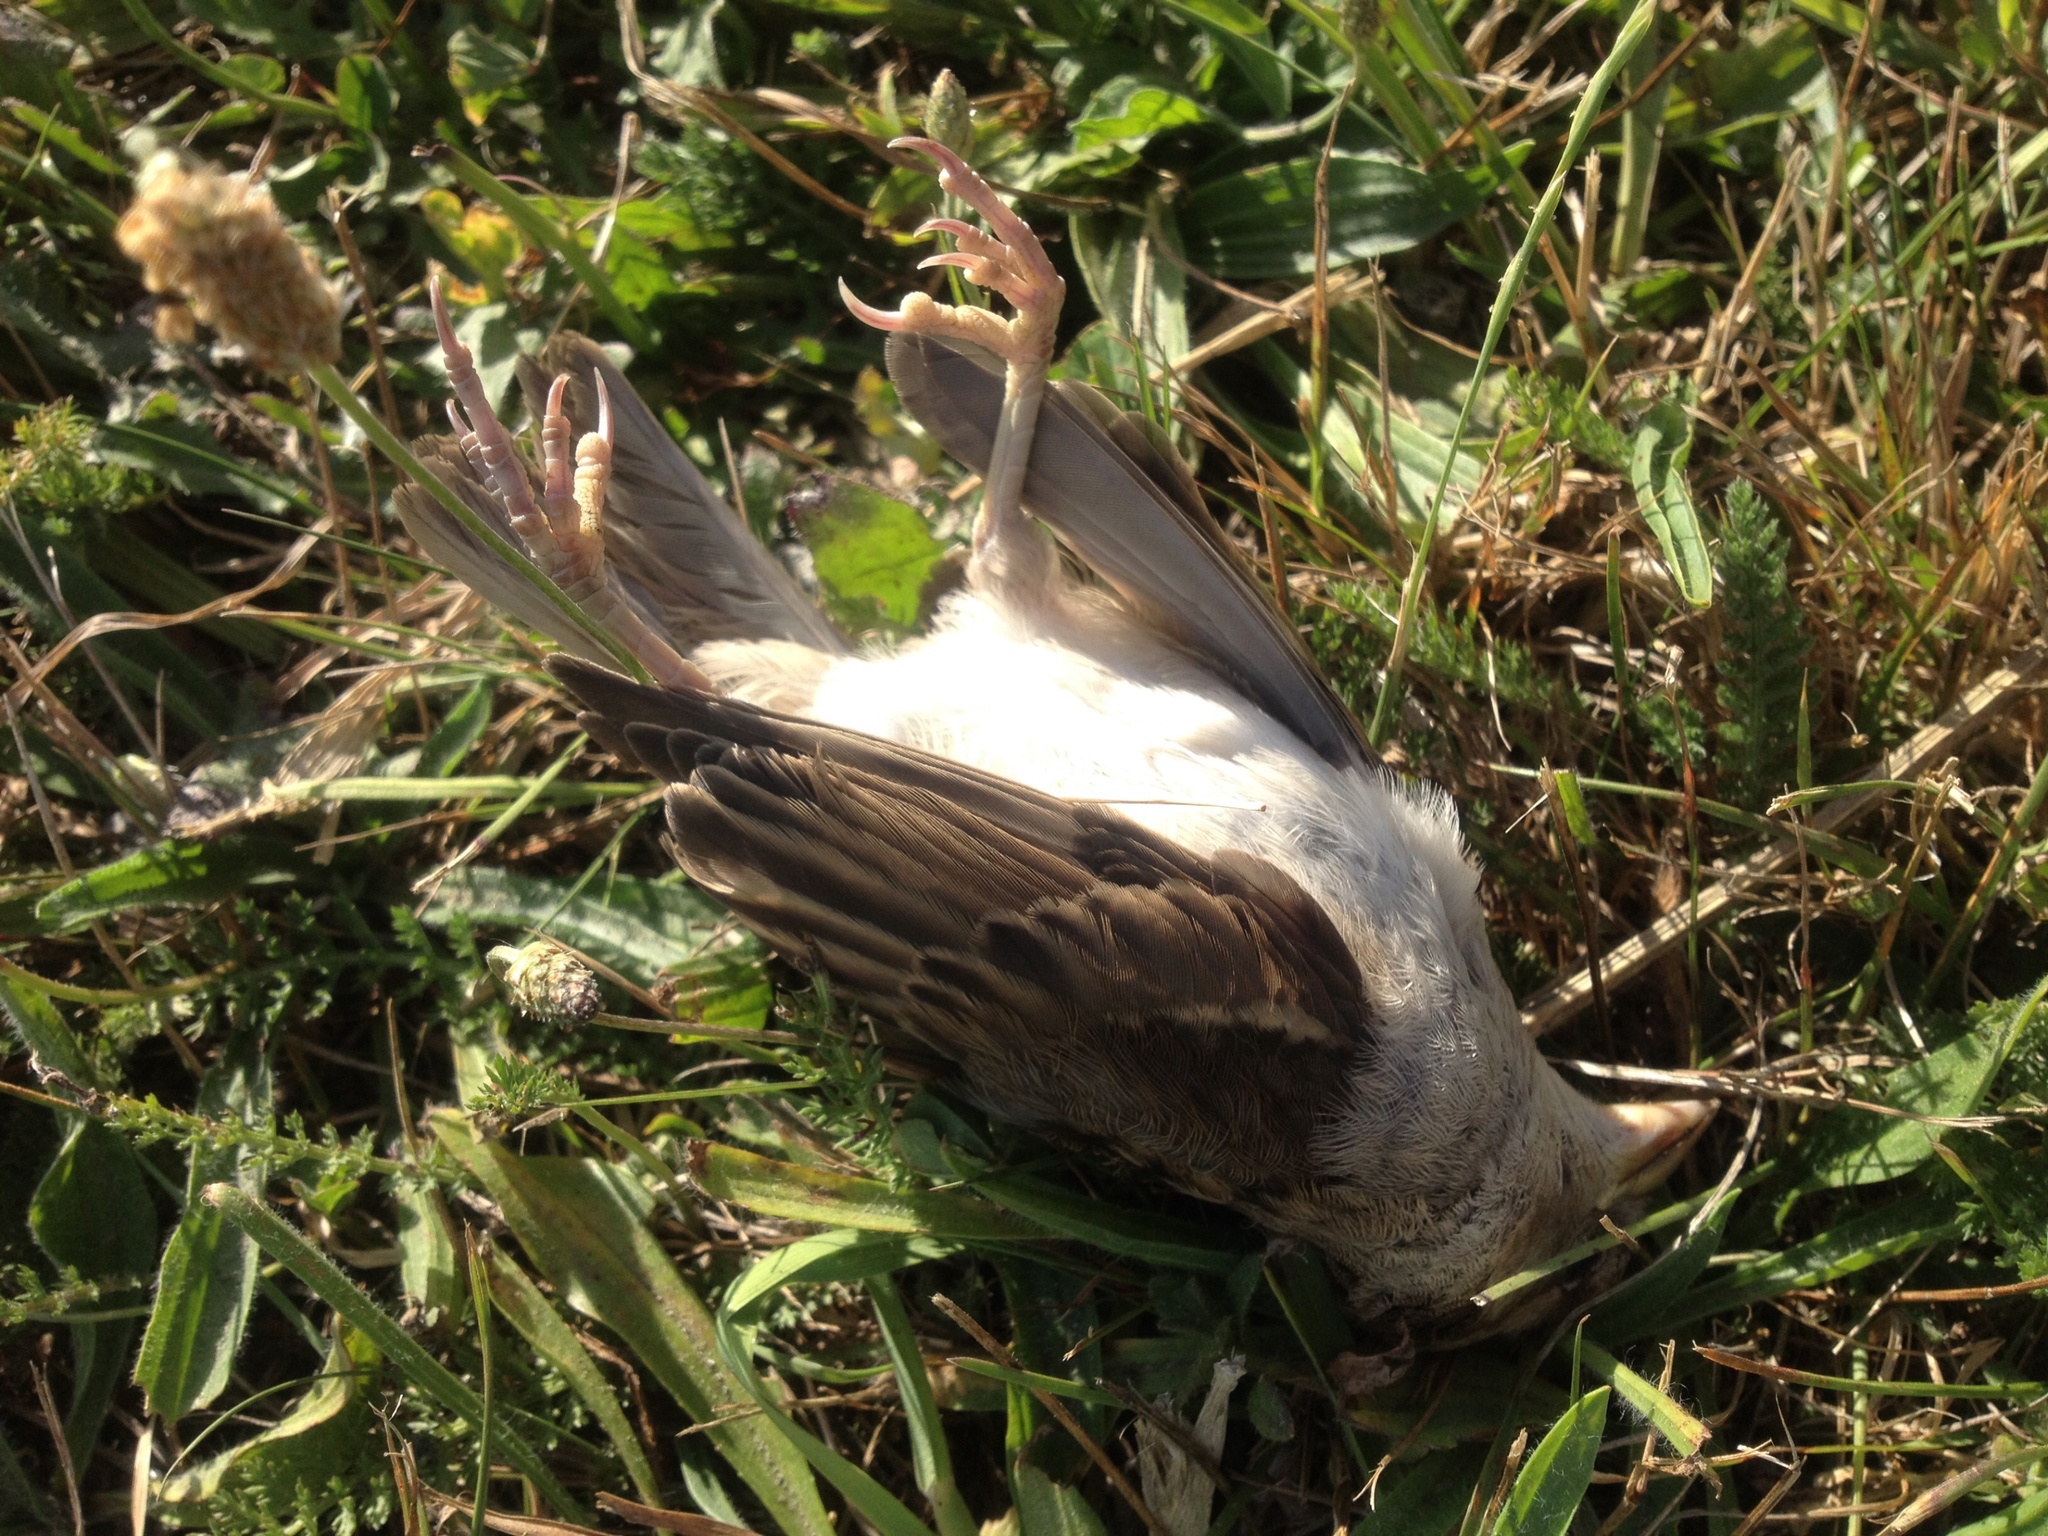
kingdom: Animalia
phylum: Chordata
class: Aves
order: Passeriformes
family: Passeridae
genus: Passer
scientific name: Passer domesticus
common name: House sparrow
